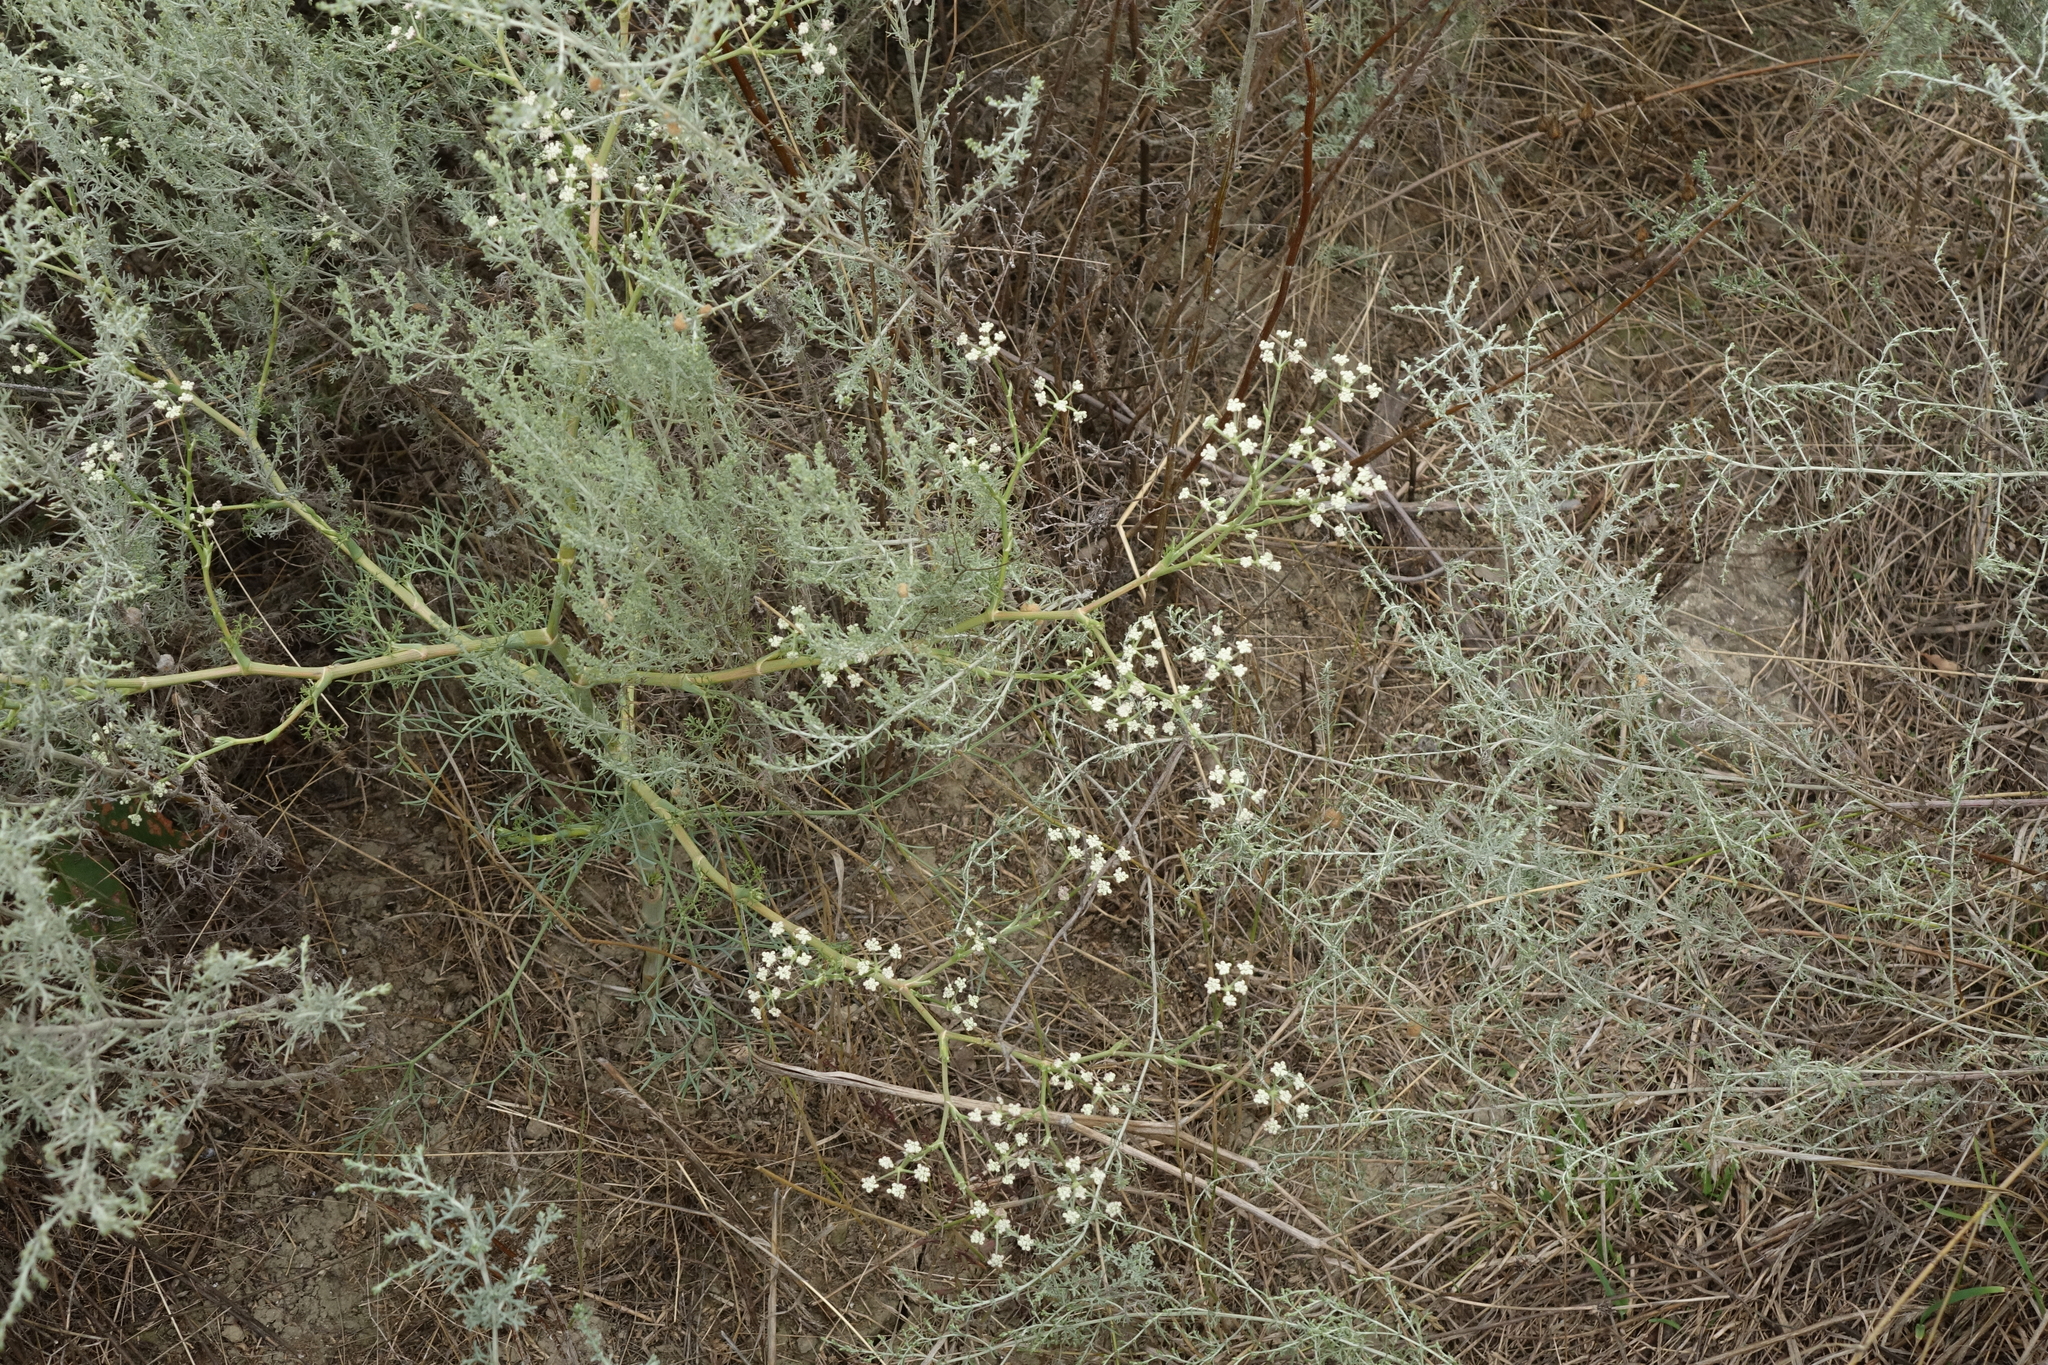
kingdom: Plantae
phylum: Tracheophyta
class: Magnoliopsida
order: Apiales
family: Apiaceae
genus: Seseli
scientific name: Seseli arenarium
